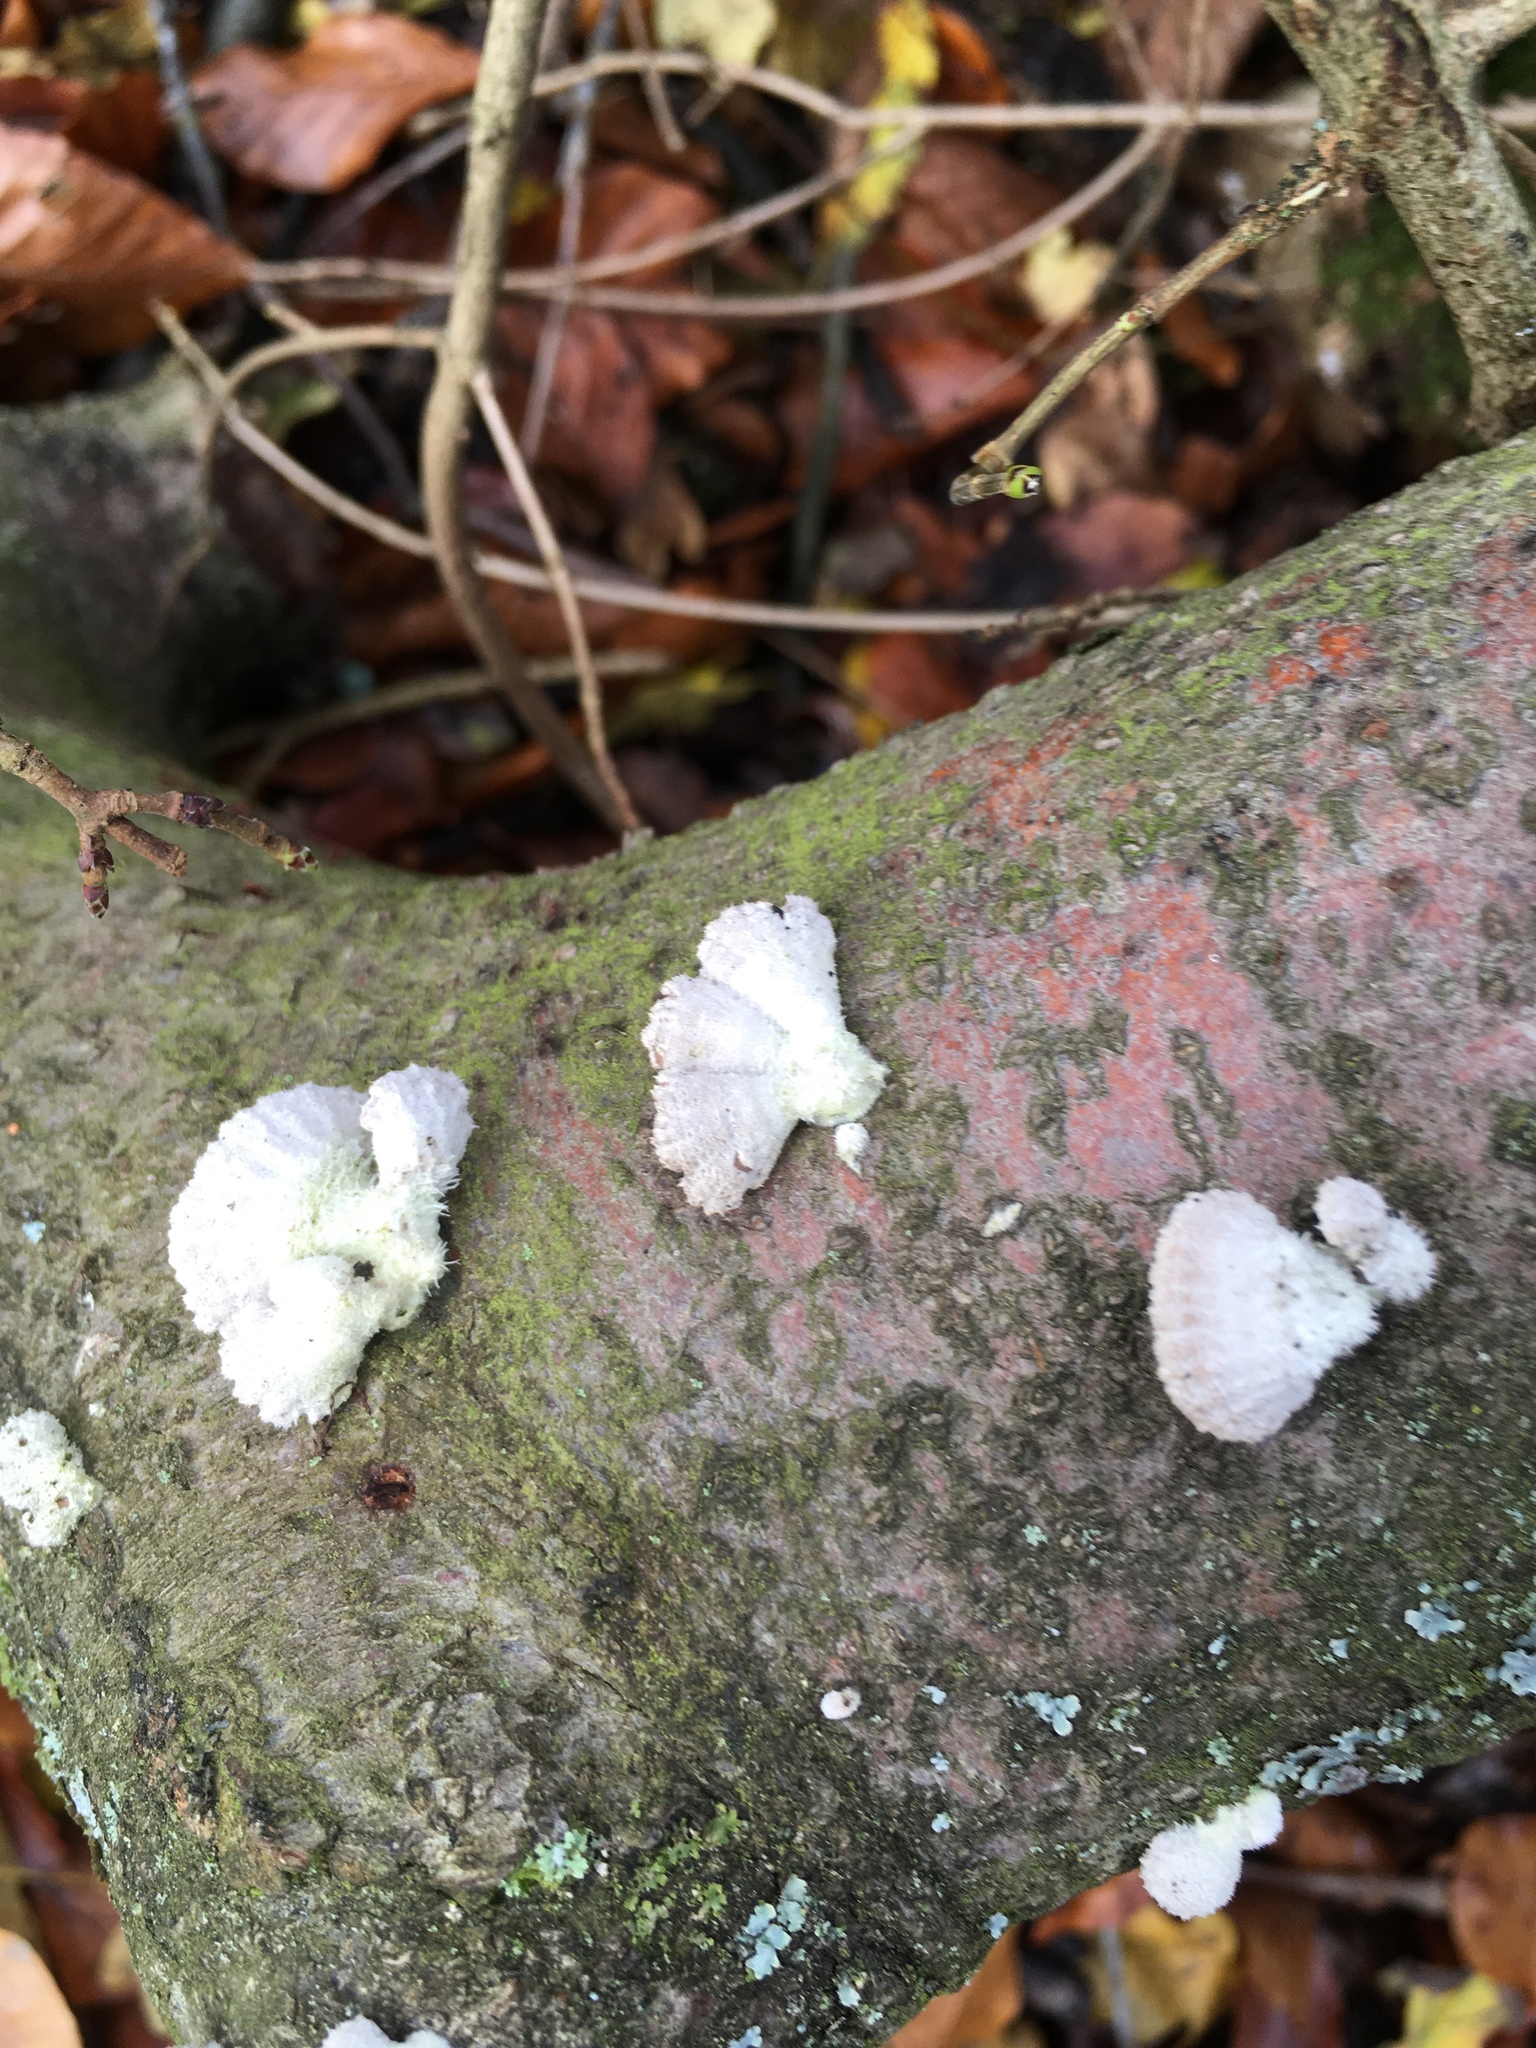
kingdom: Fungi
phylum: Basidiomycota
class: Agaricomycetes
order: Agaricales
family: Schizophyllaceae
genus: Schizophyllum
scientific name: Schizophyllum commune
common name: Common porecrust
